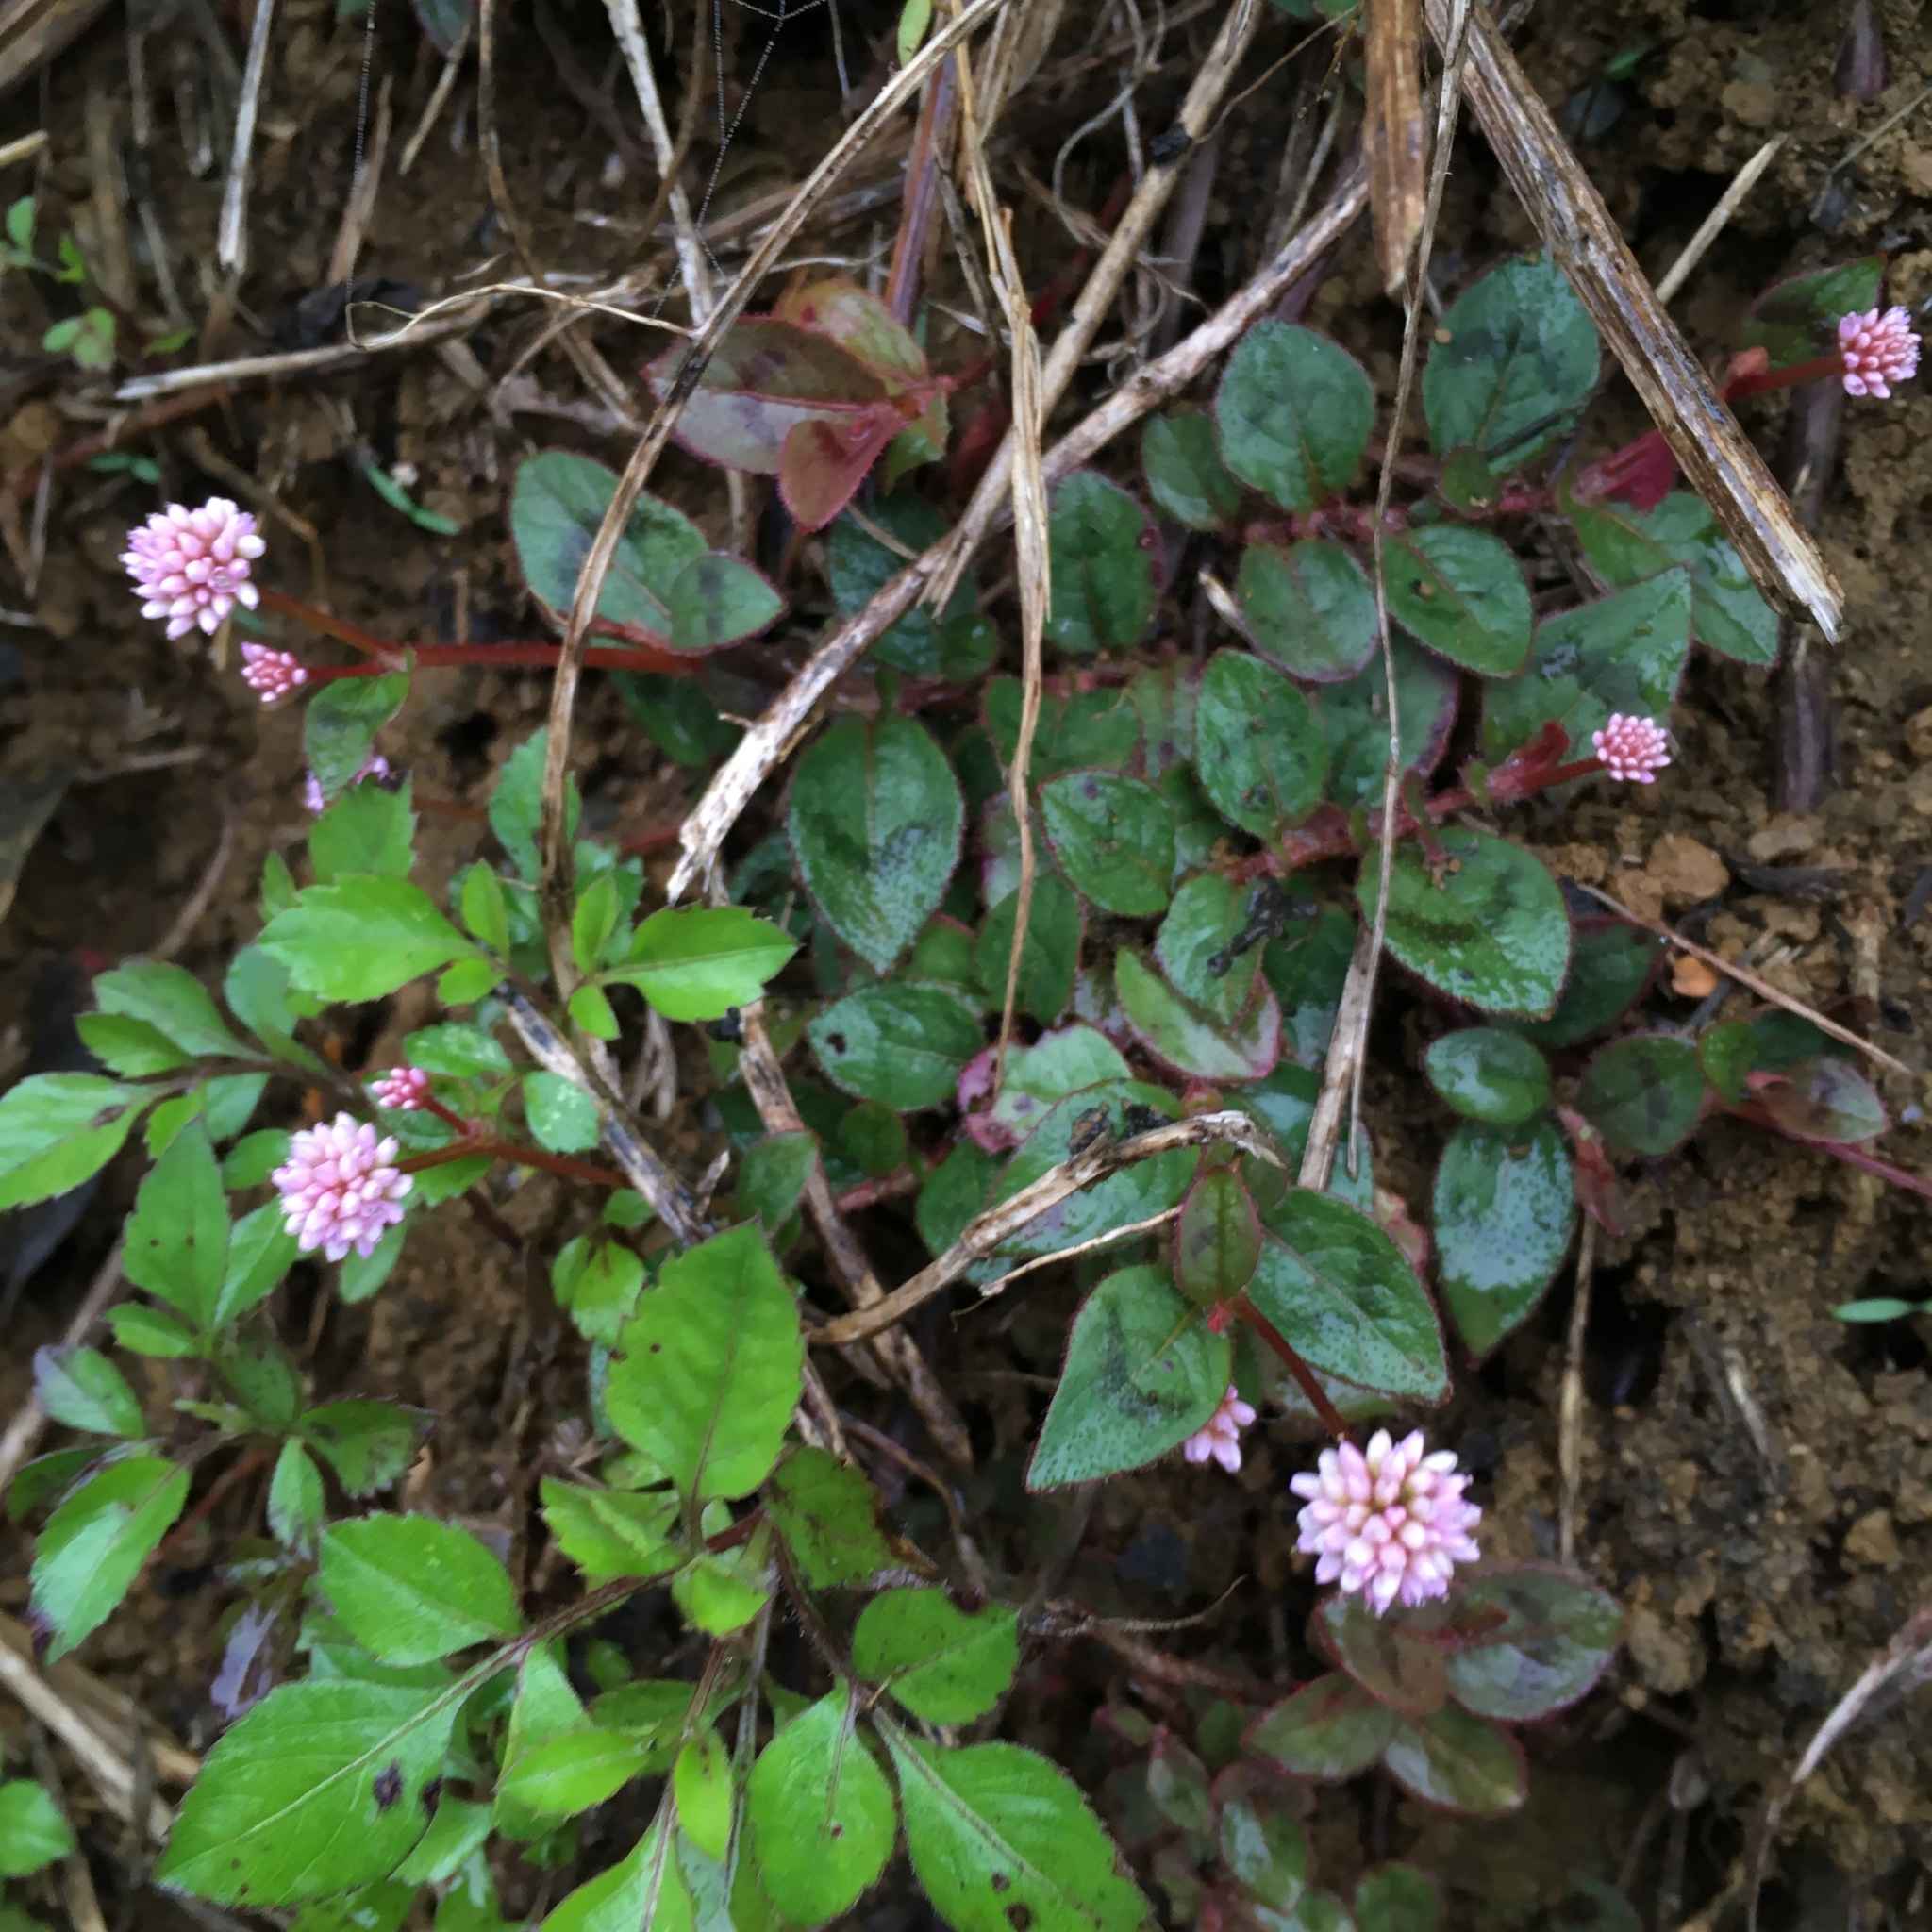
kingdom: Plantae
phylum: Tracheophyta
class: Magnoliopsida
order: Caryophyllales
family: Polygonaceae
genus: Persicaria
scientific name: Persicaria capitata
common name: Pinkhead smartweed
